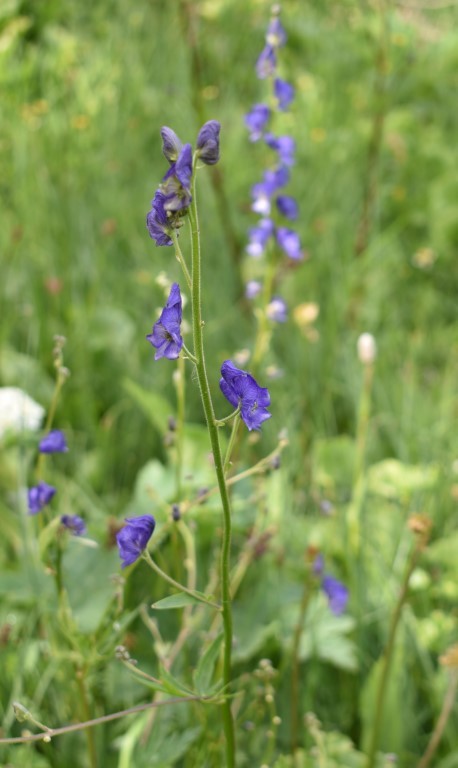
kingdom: Plantae
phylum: Tracheophyta
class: Magnoliopsida
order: Ranunculales
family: Ranunculaceae
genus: Aconitum
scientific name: Aconitum columbianum
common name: Columbia aconite
